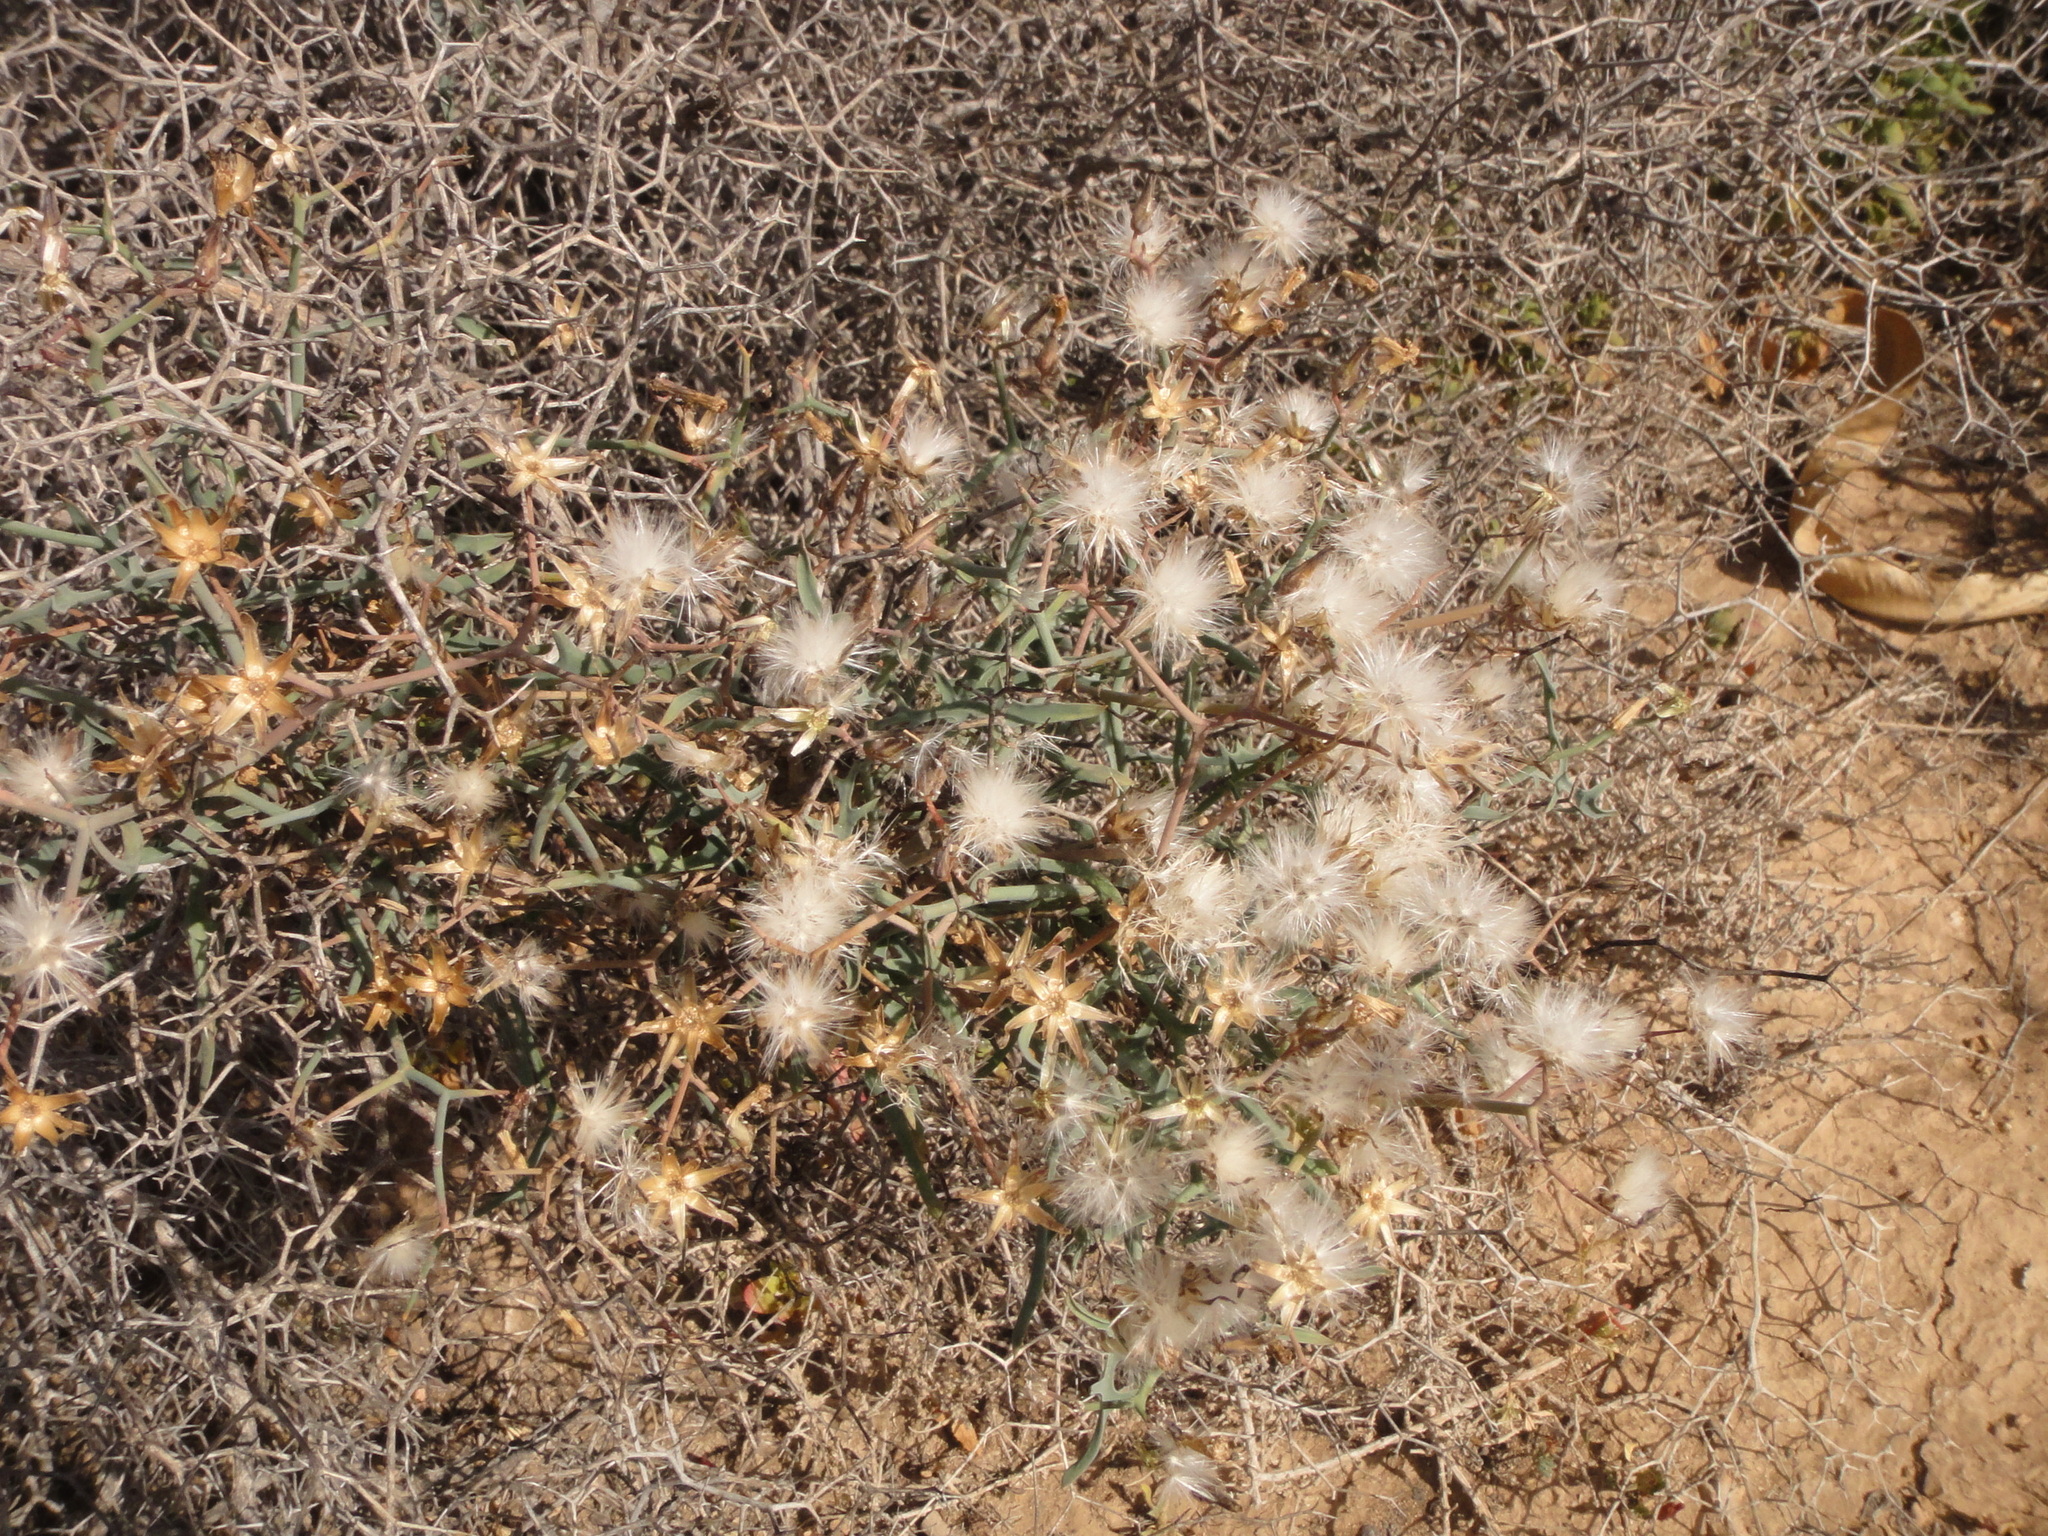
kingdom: Plantae
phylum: Tracheophyta
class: Magnoliopsida
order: Asterales
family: Asteraceae
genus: Launaea
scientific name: Launaea arborescens
